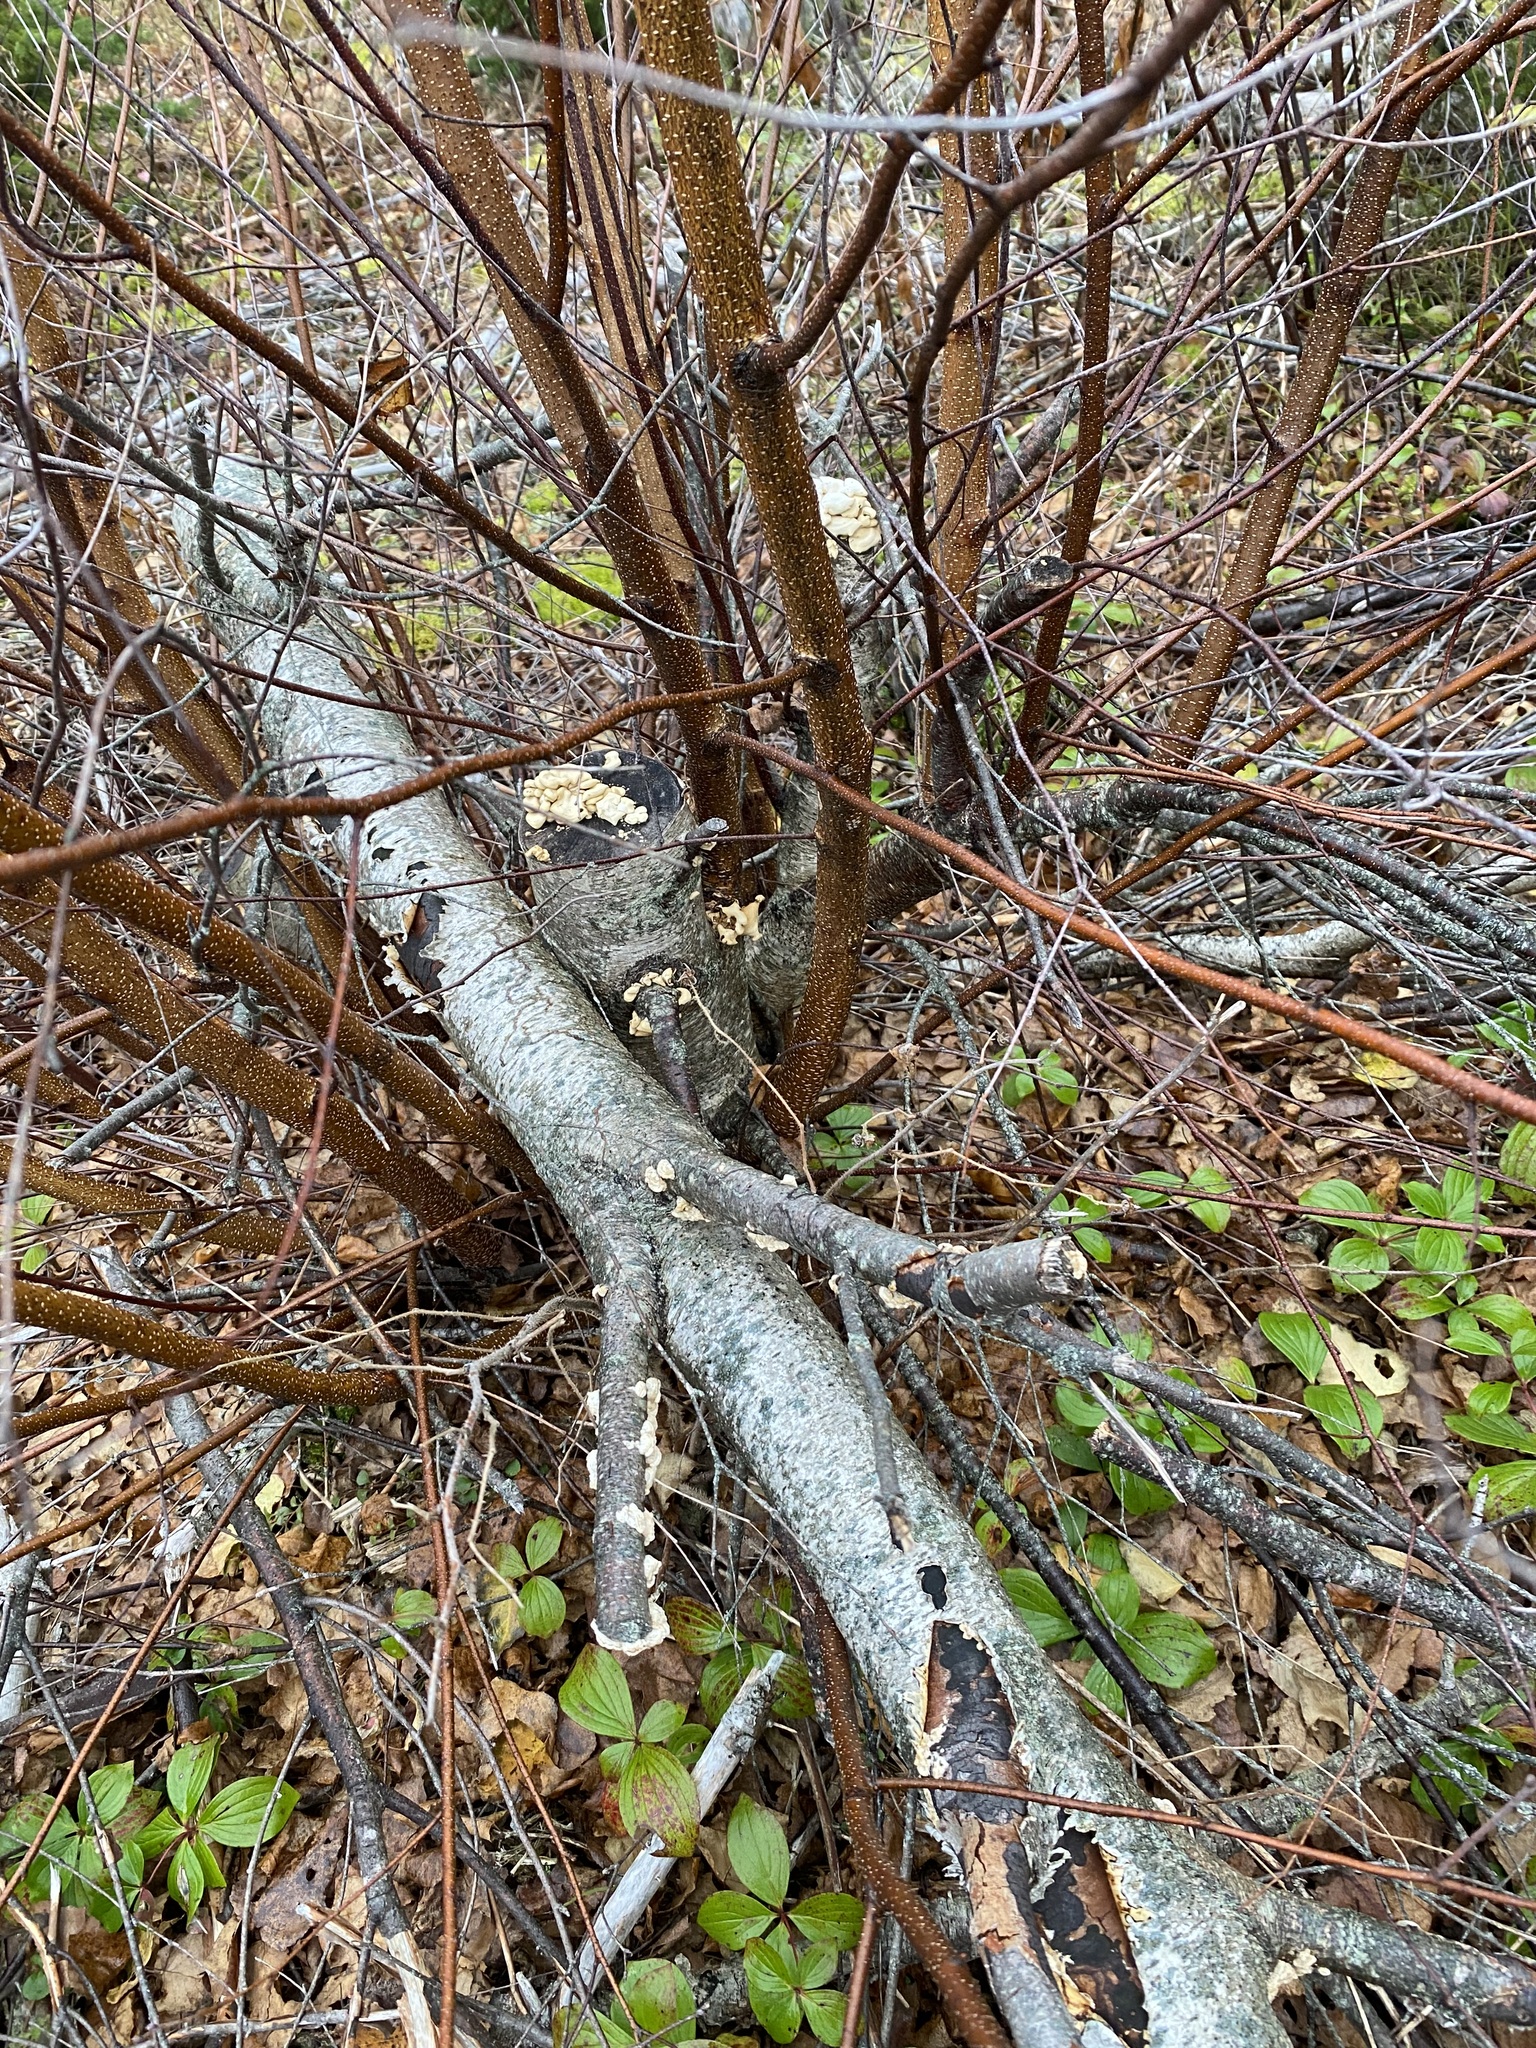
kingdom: Fungi
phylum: Basidiomycota
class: Agaricomycetes
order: Agaricales
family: Mycenaceae
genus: Panellus
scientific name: Panellus stipticus
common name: Bitter oysterling
